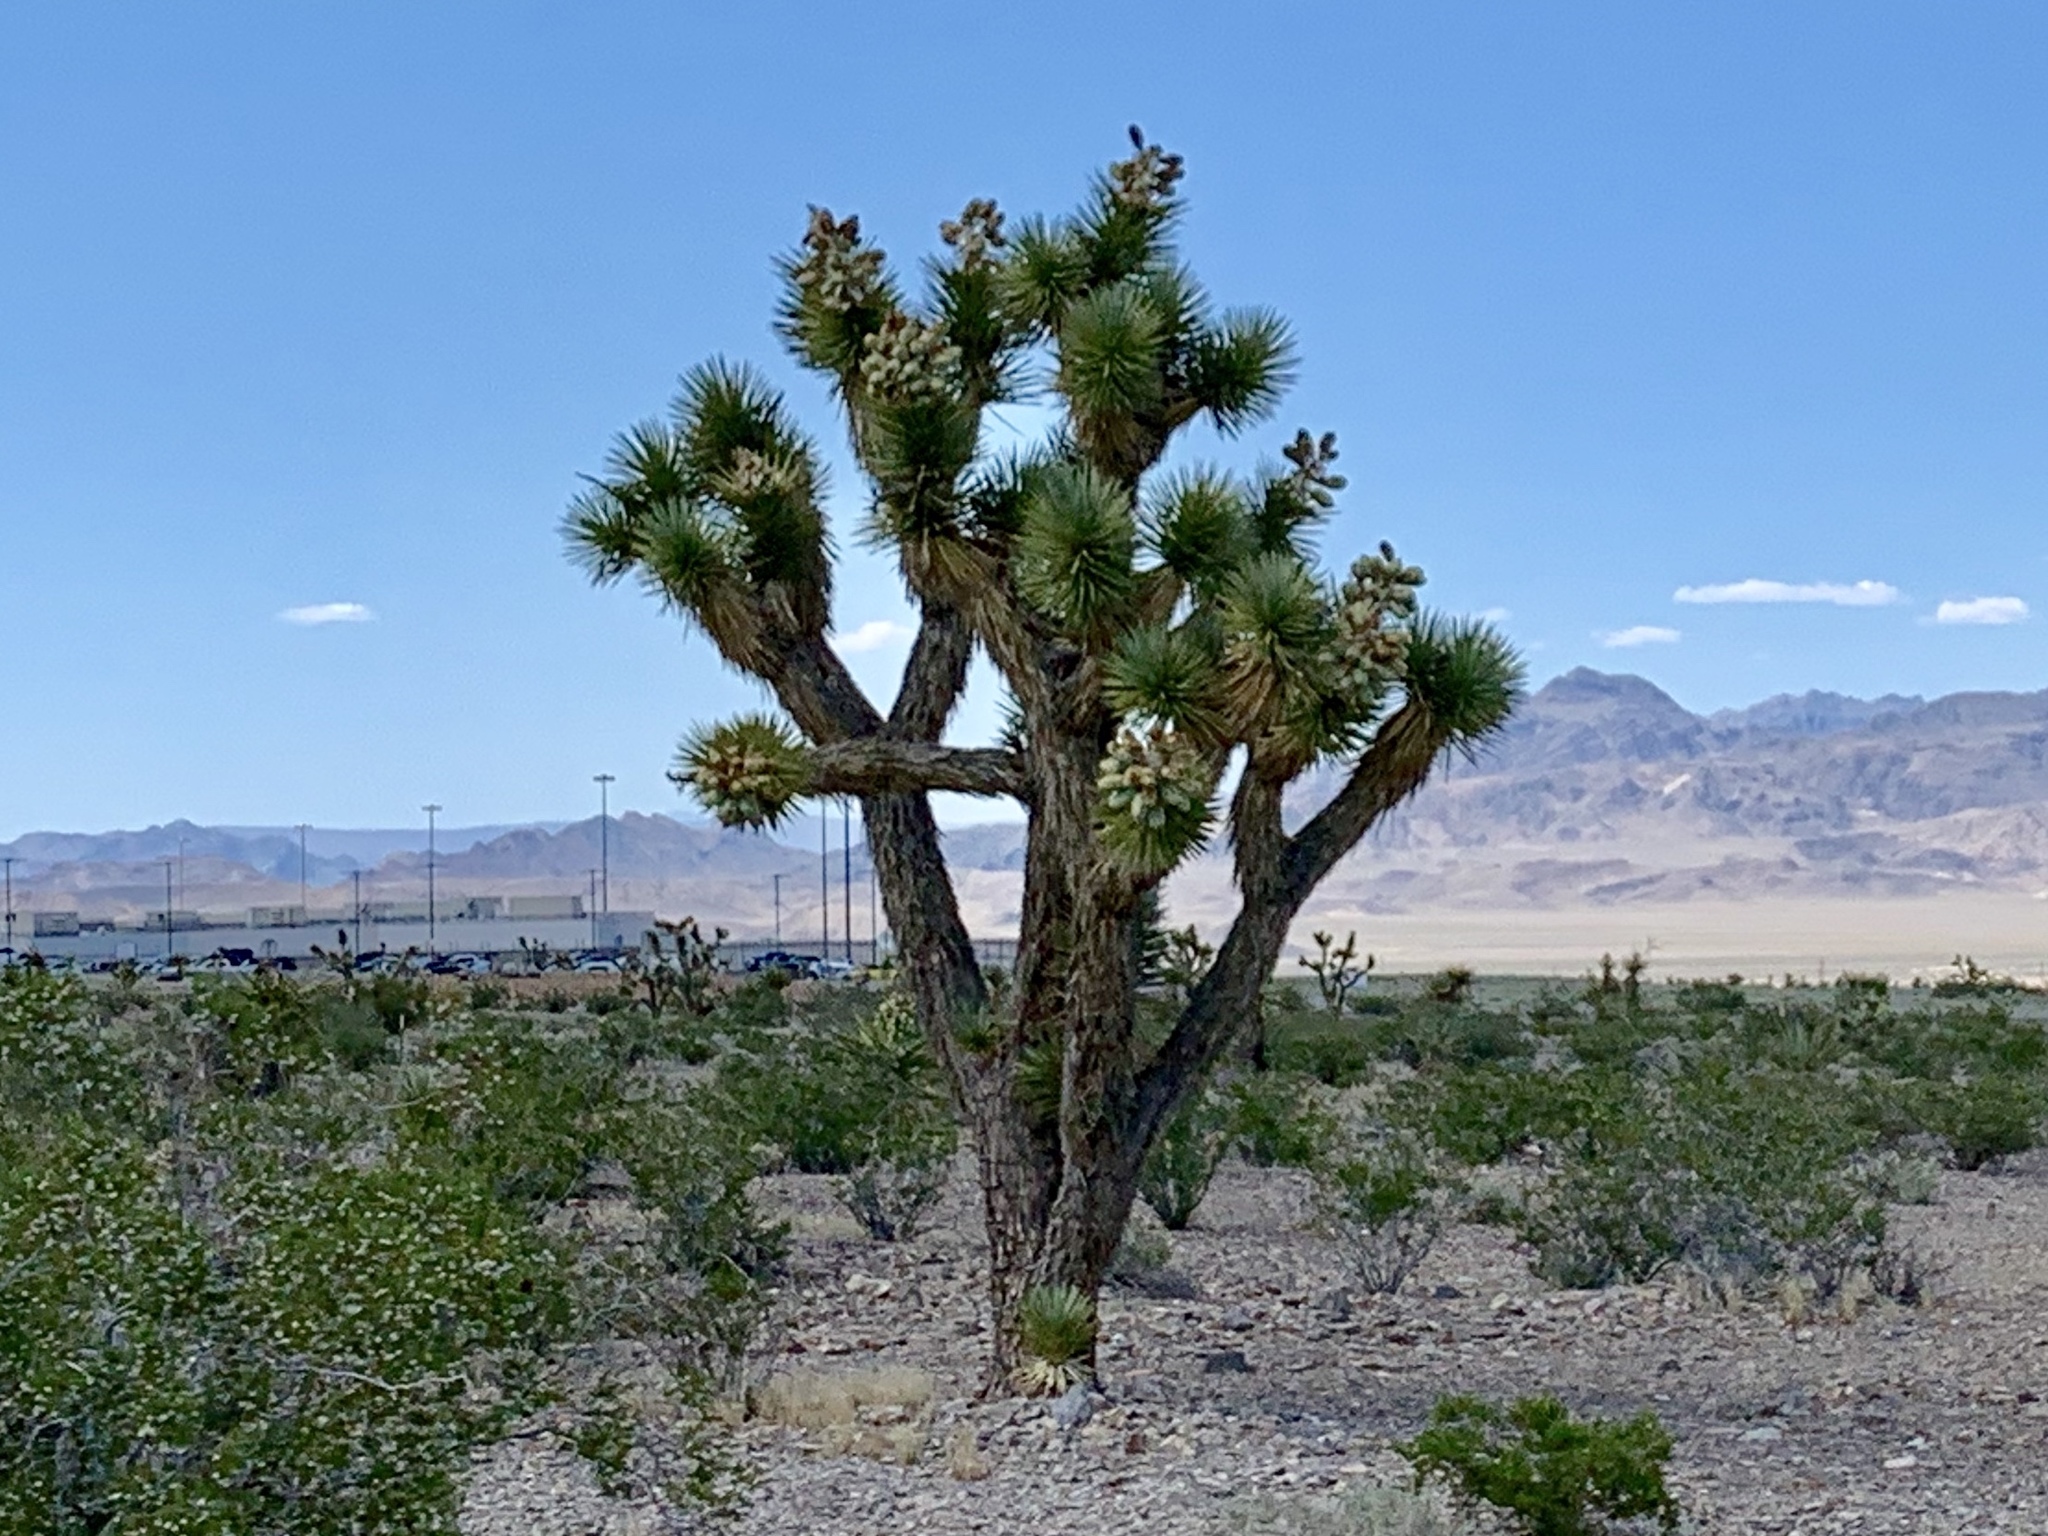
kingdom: Plantae
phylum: Tracheophyta
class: Liliopsida
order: Asparagales
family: Asparagaceae
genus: Yucca
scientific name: Yucca brevifolia
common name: Joshua tree
